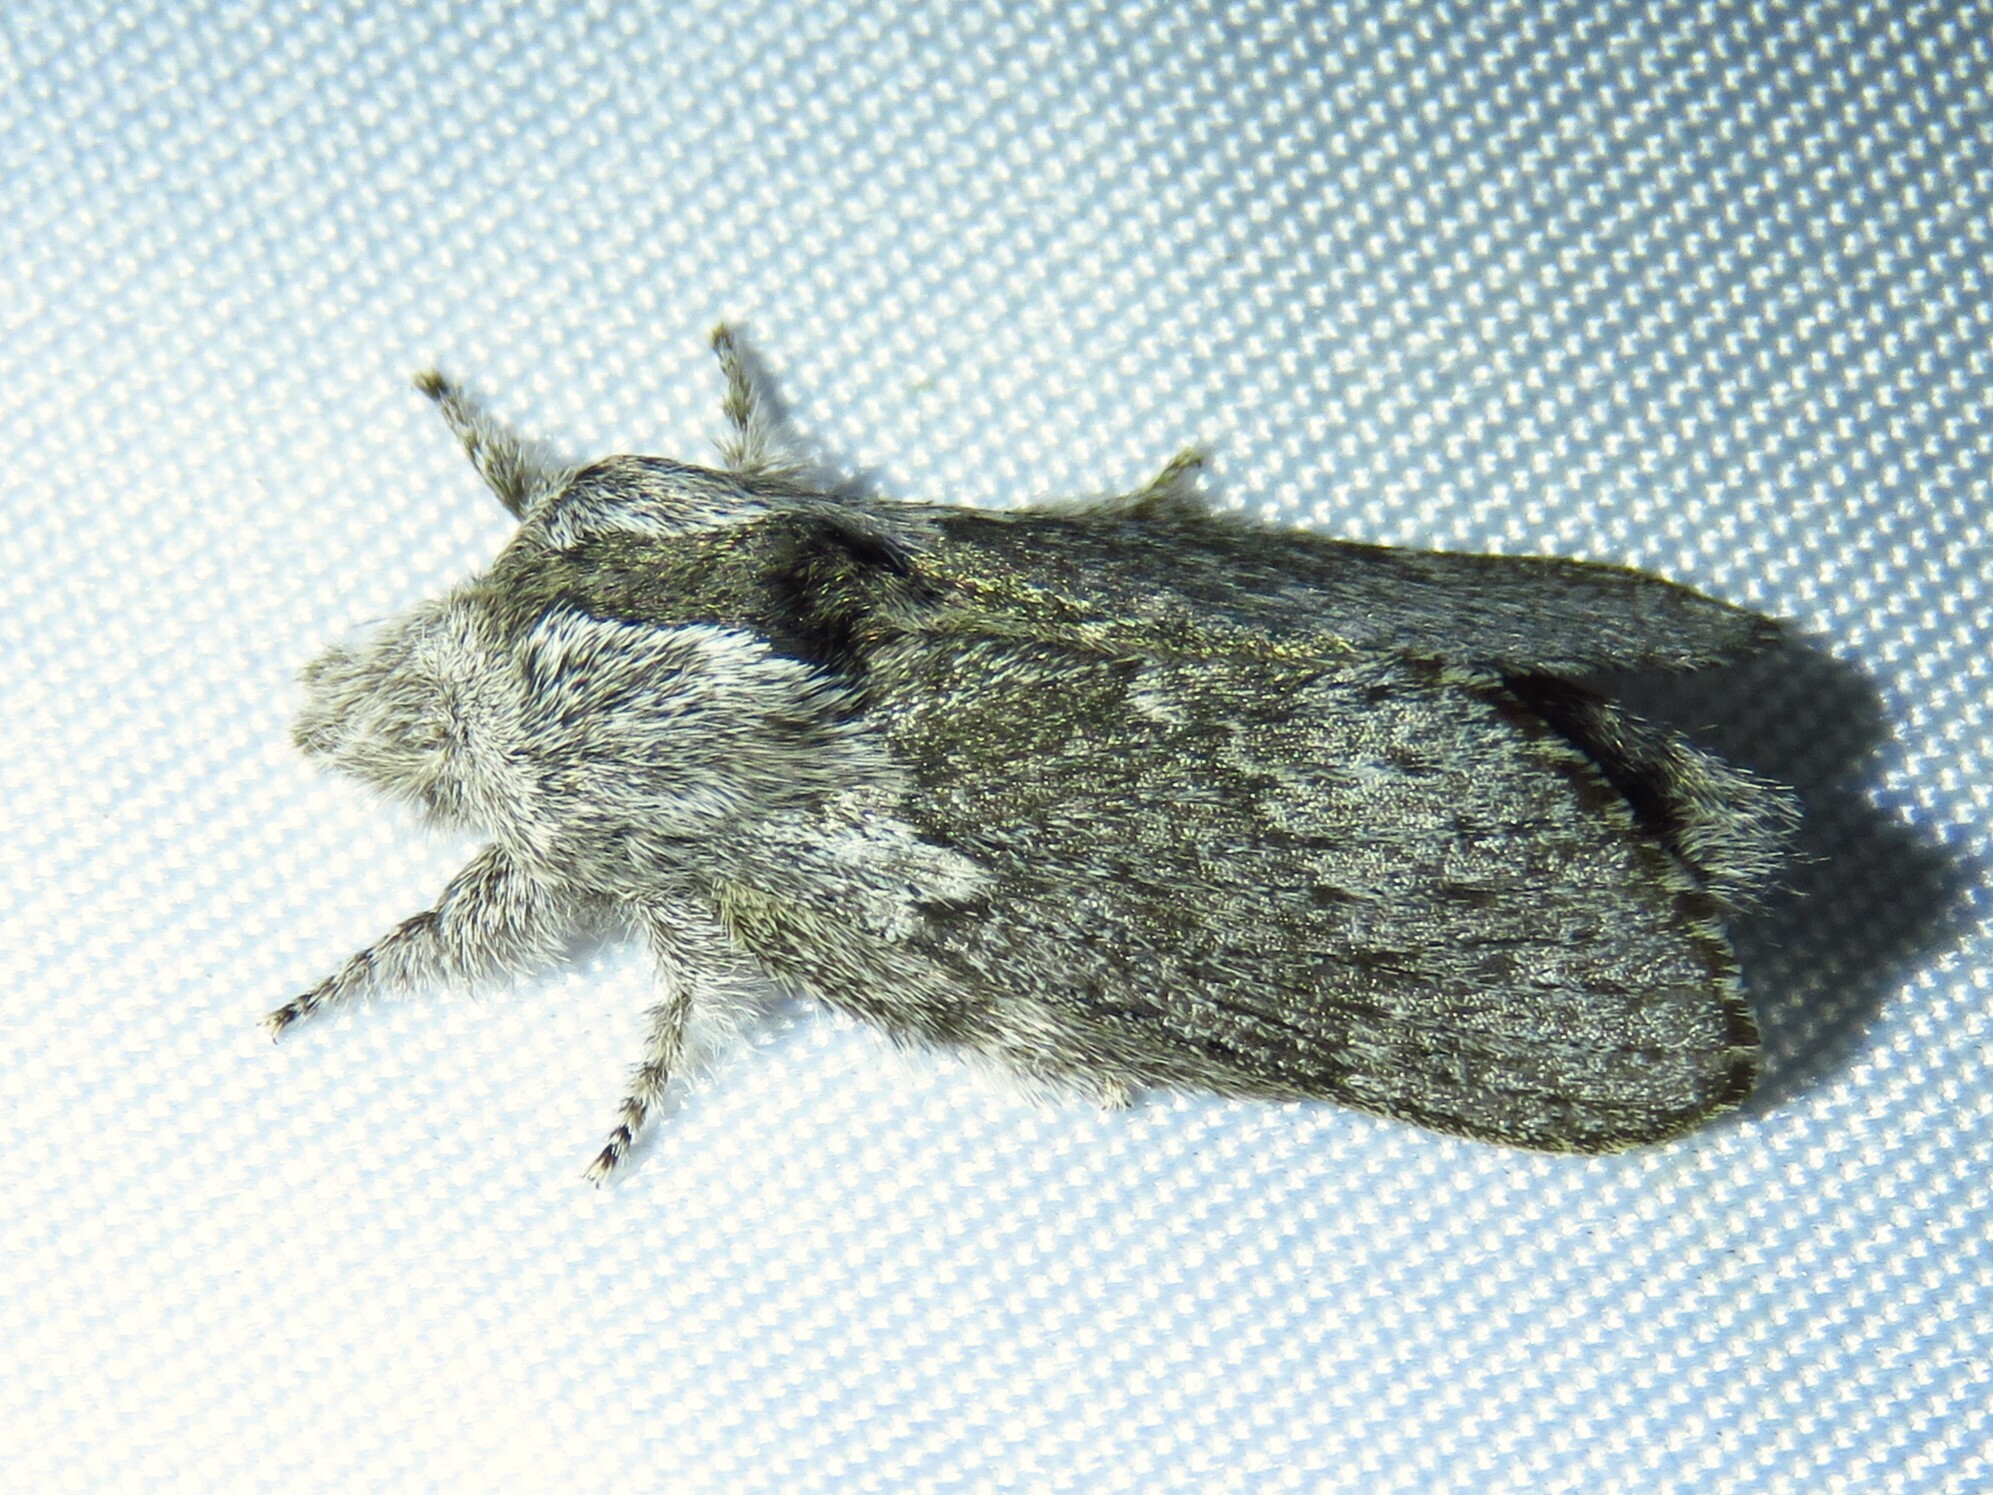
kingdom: Animalia
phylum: Arthropoda
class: Insecta
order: Lepidoptera
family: Lasiocampidae
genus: Heteropacha
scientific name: Heteropacha rileyana
